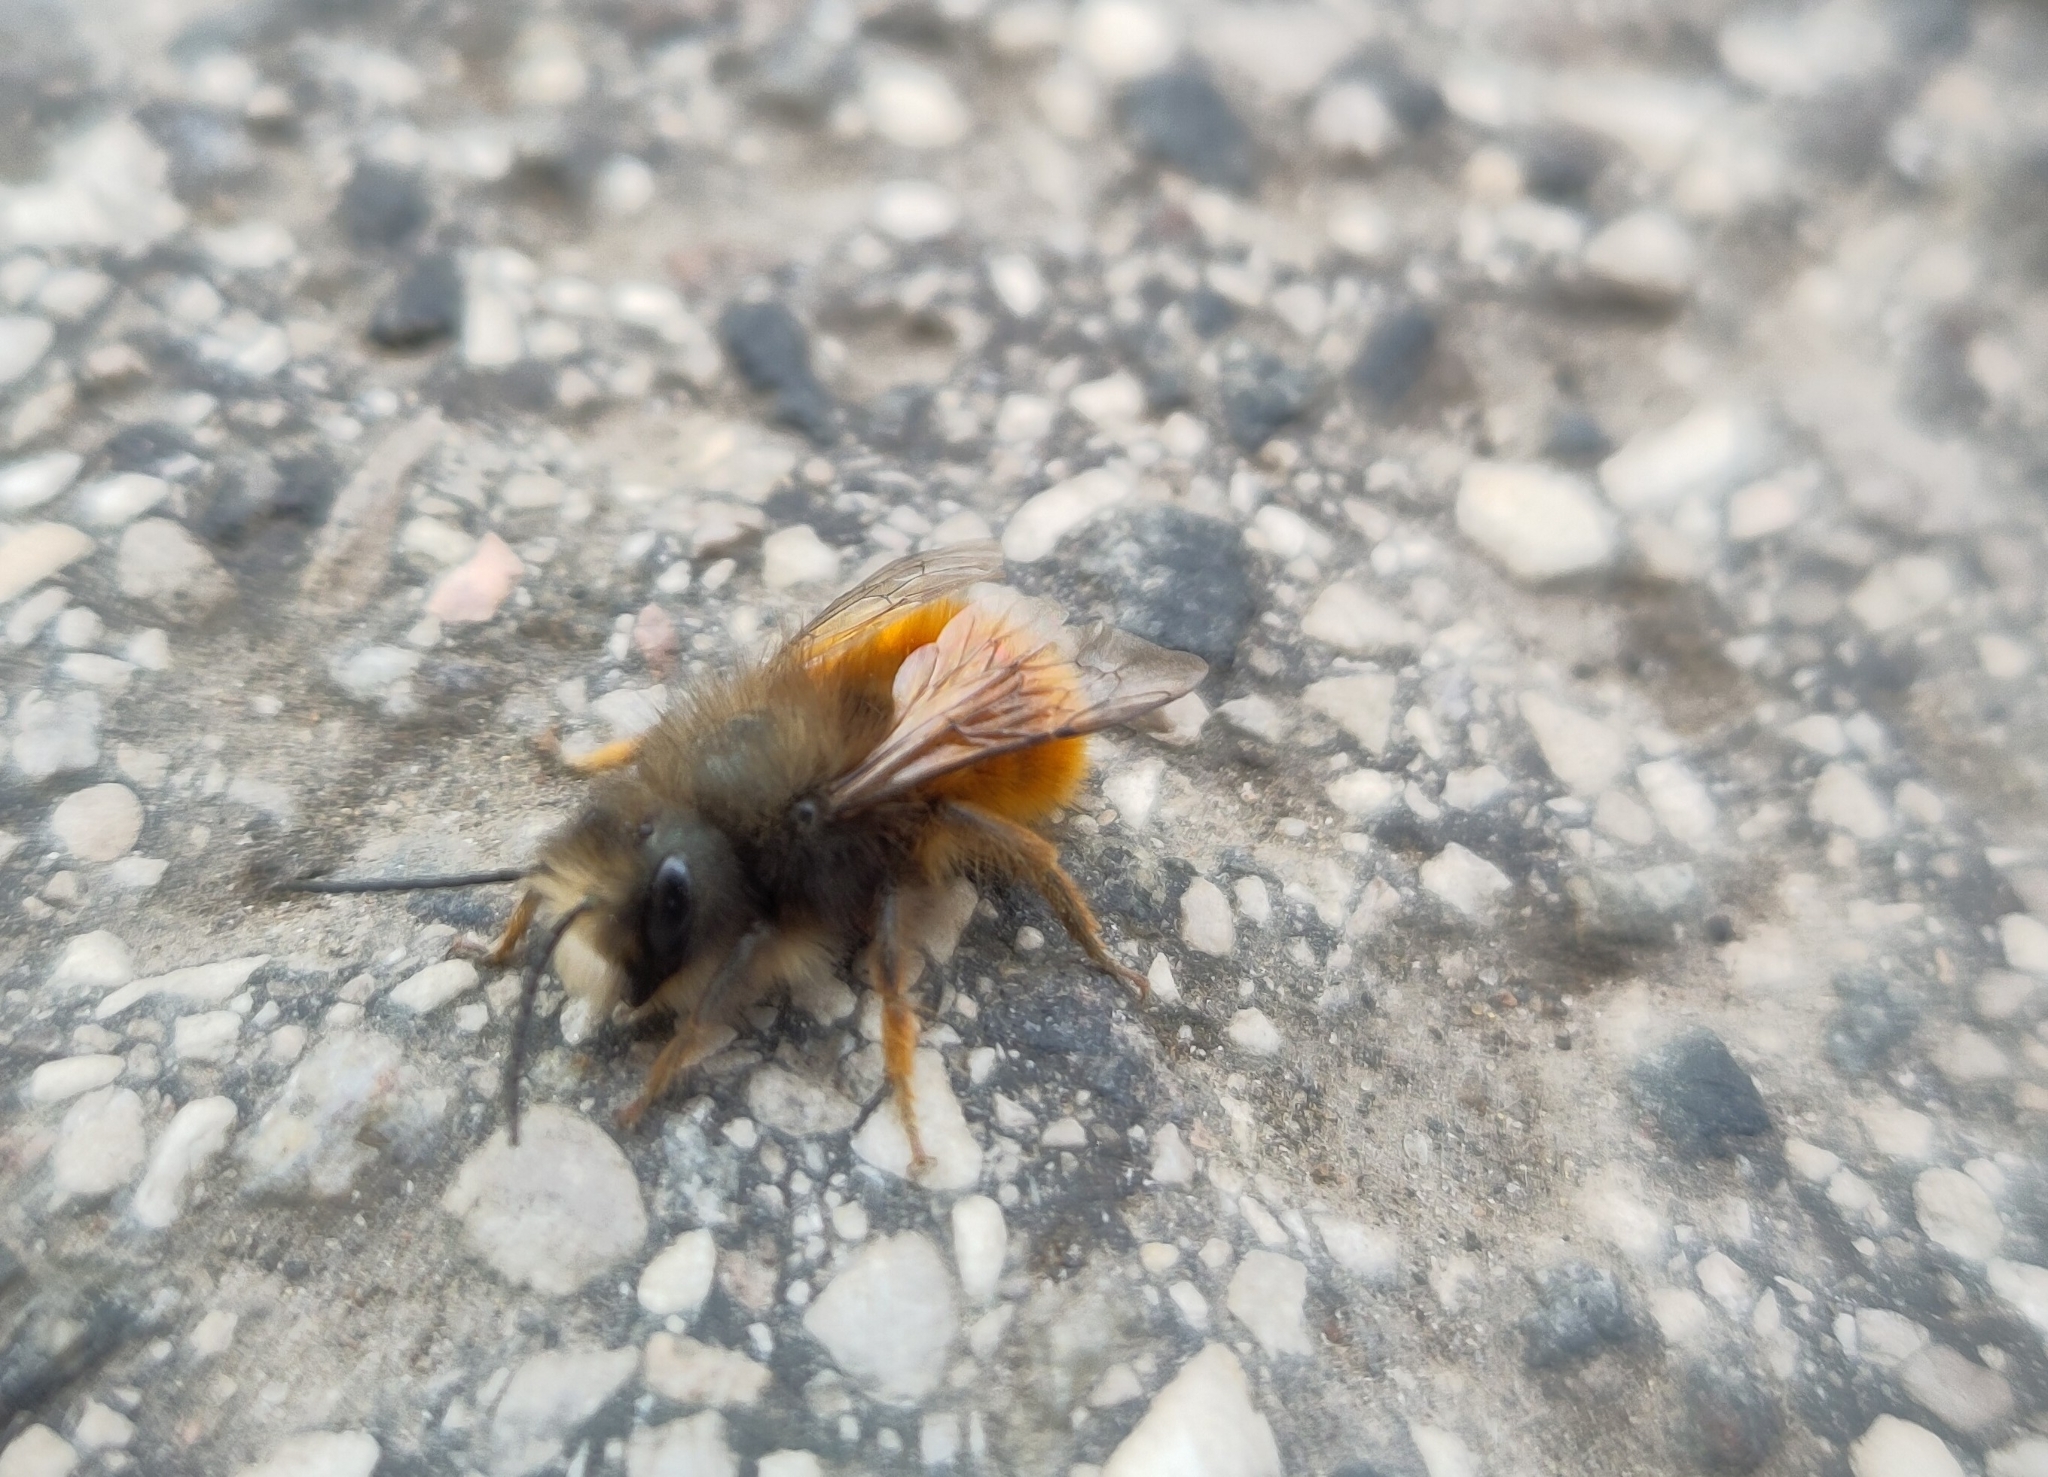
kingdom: Animalia
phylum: Arthropoda
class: Insecta
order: Hymenoptera
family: Megachilidae
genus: Osmia
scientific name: Osmia cornuta
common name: Mason bee
